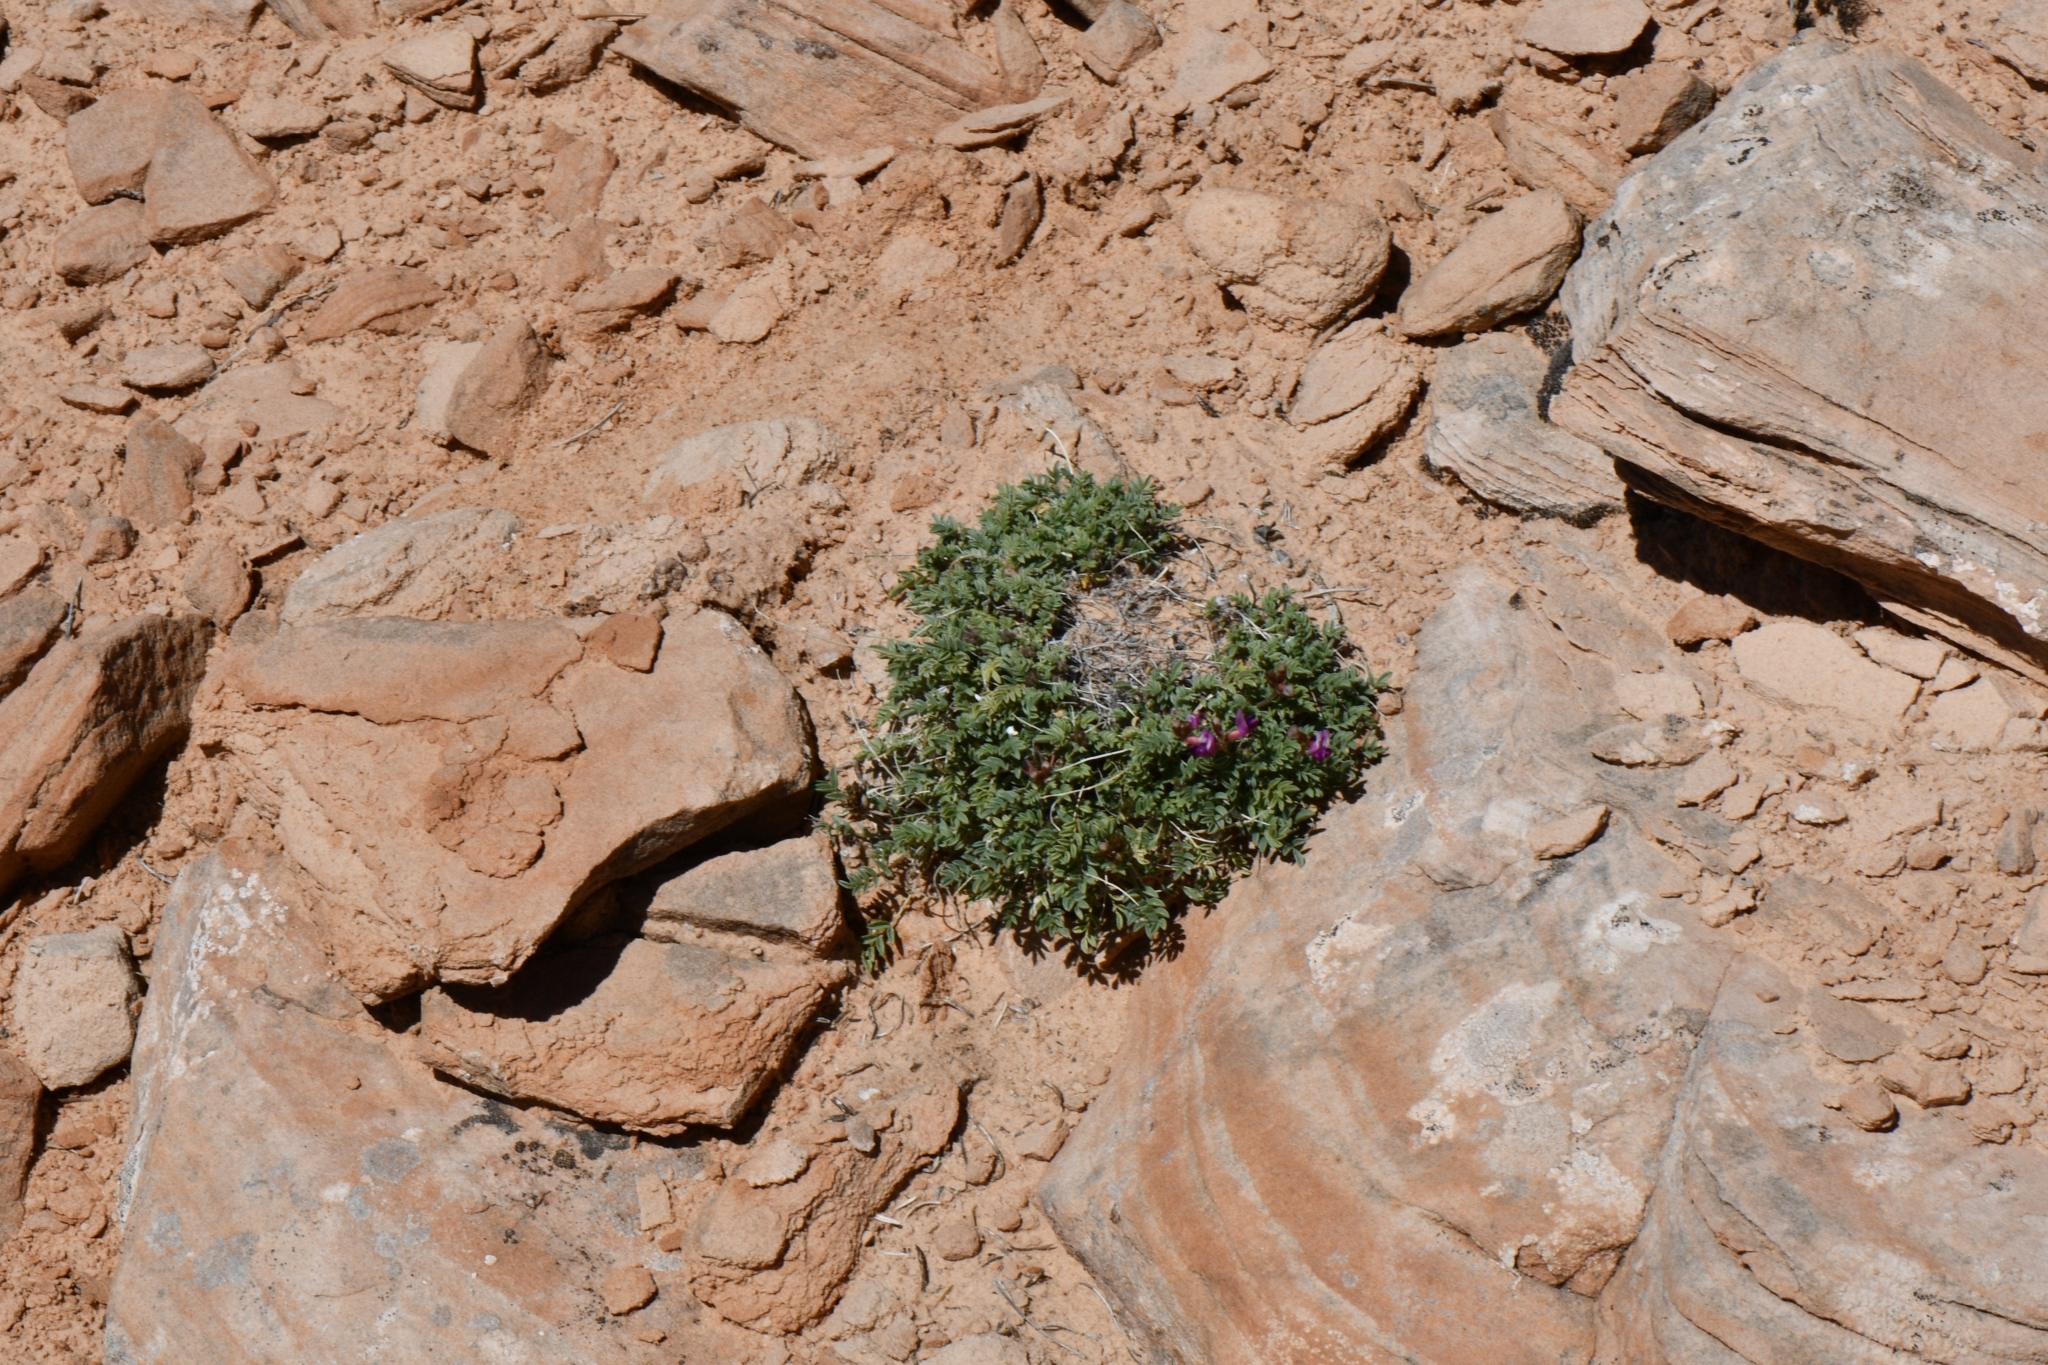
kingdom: Plantae
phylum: Tracheophyta
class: Magnoliopsida
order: Fabales
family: Fabaceae
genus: Astragalus
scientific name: Astragalus desperatus
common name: Rimrock milk-vetch
